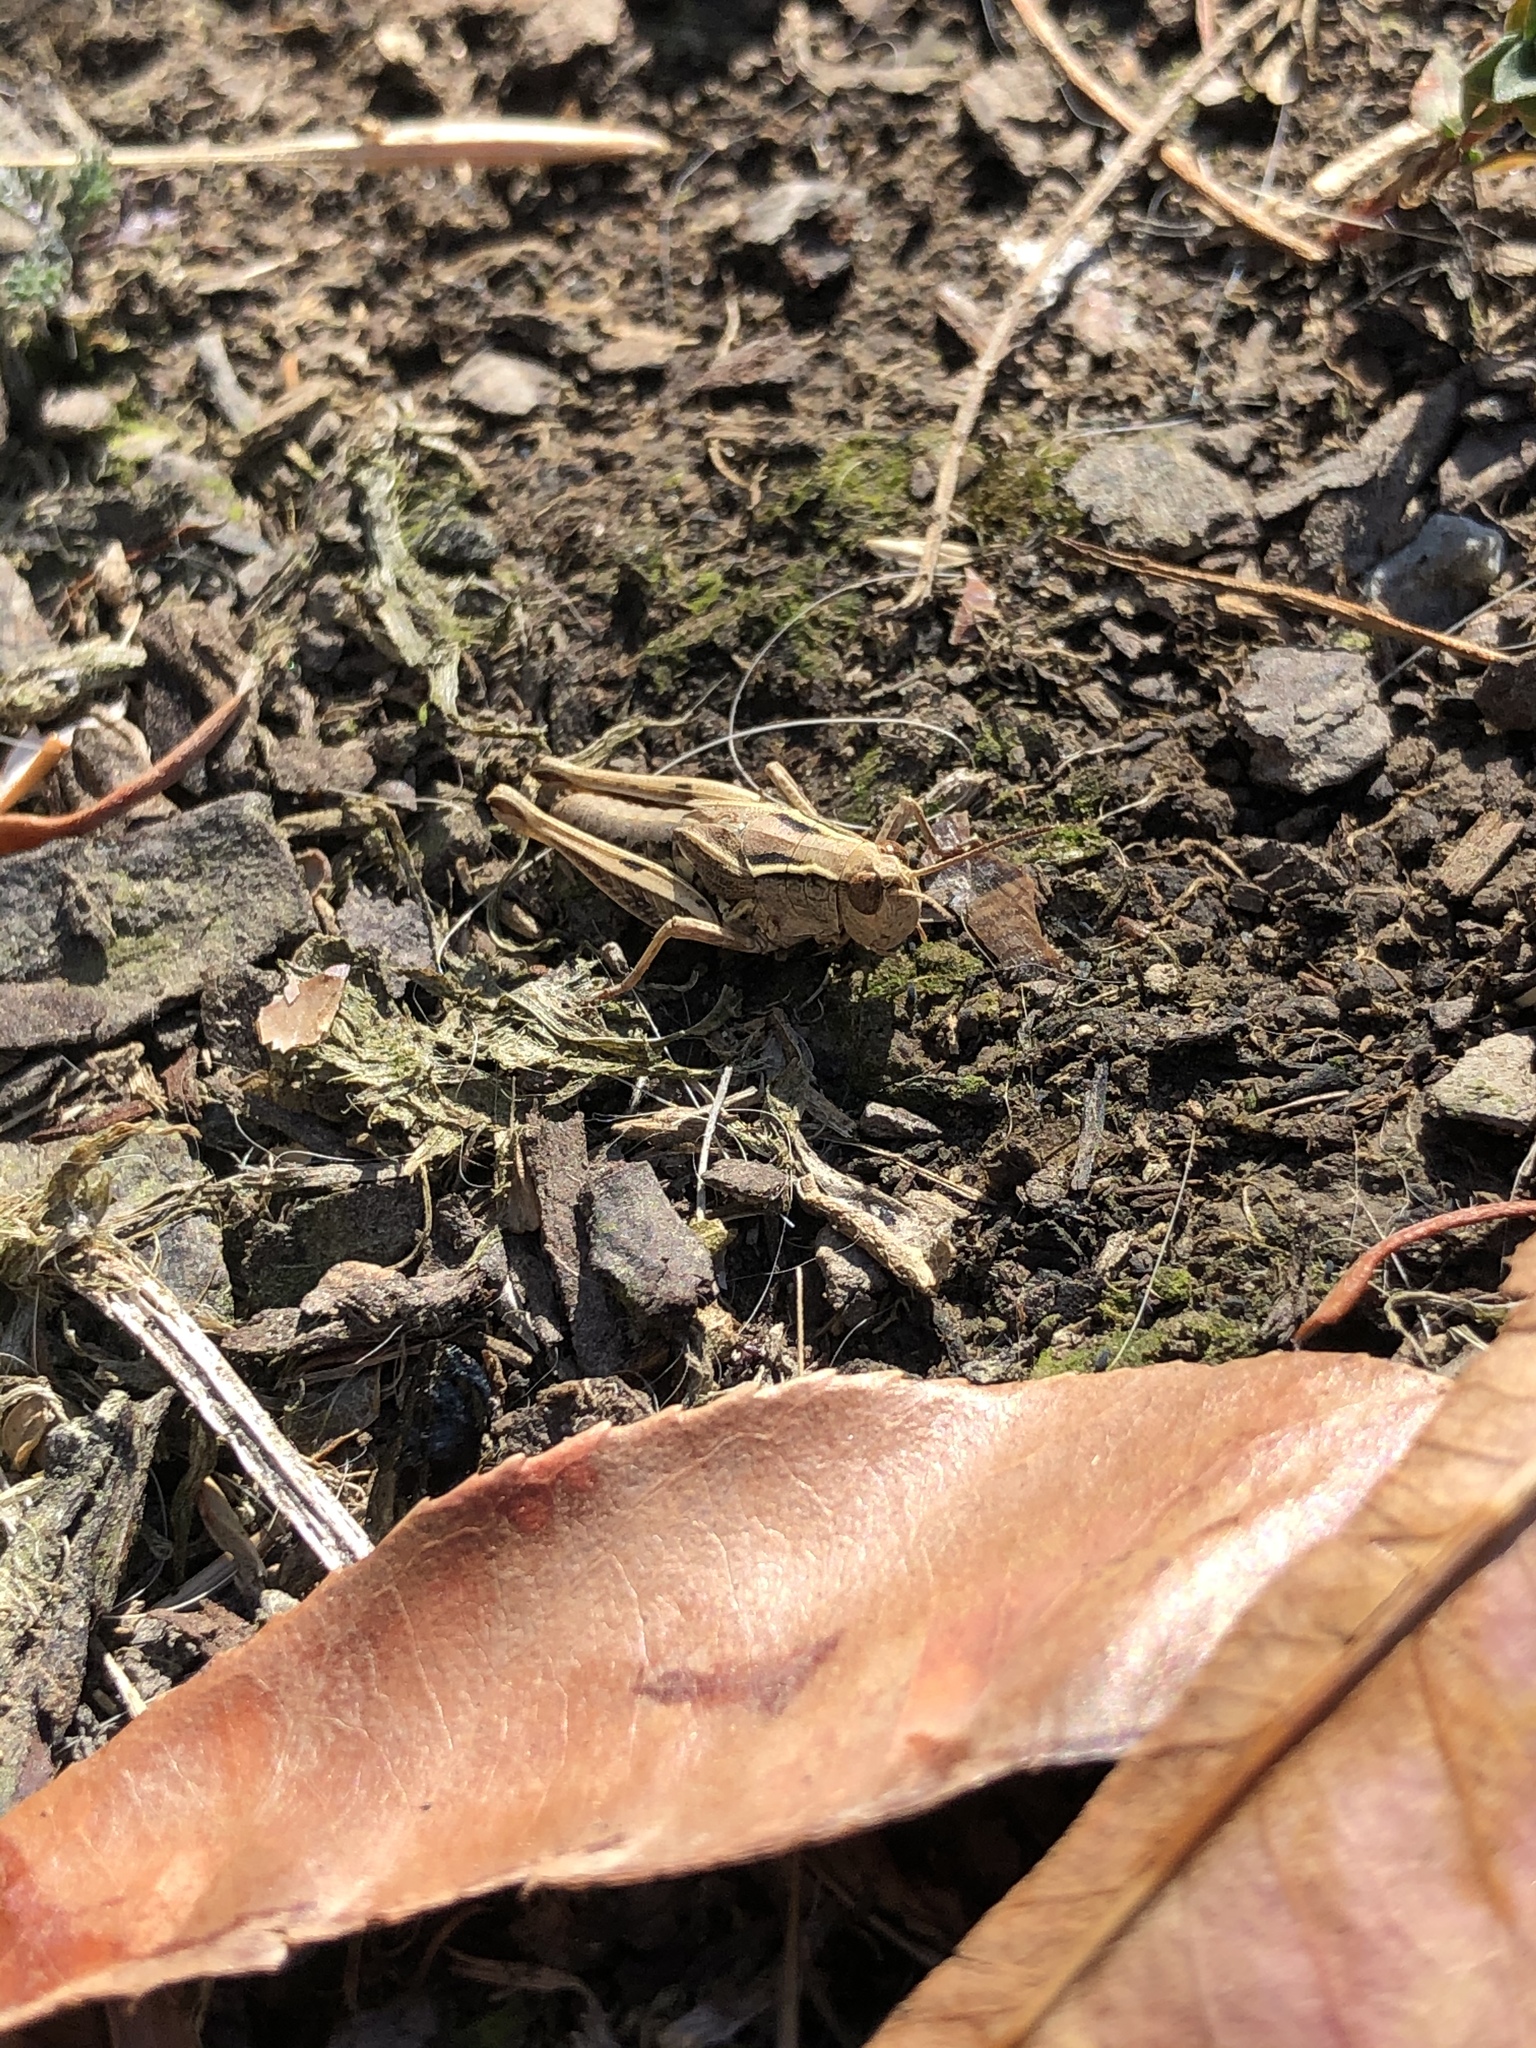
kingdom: Animalia
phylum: Arthropoda
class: Insecta
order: Orthoptera
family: Acrididae
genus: Phaulacridium
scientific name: Phaulacridium marginale
